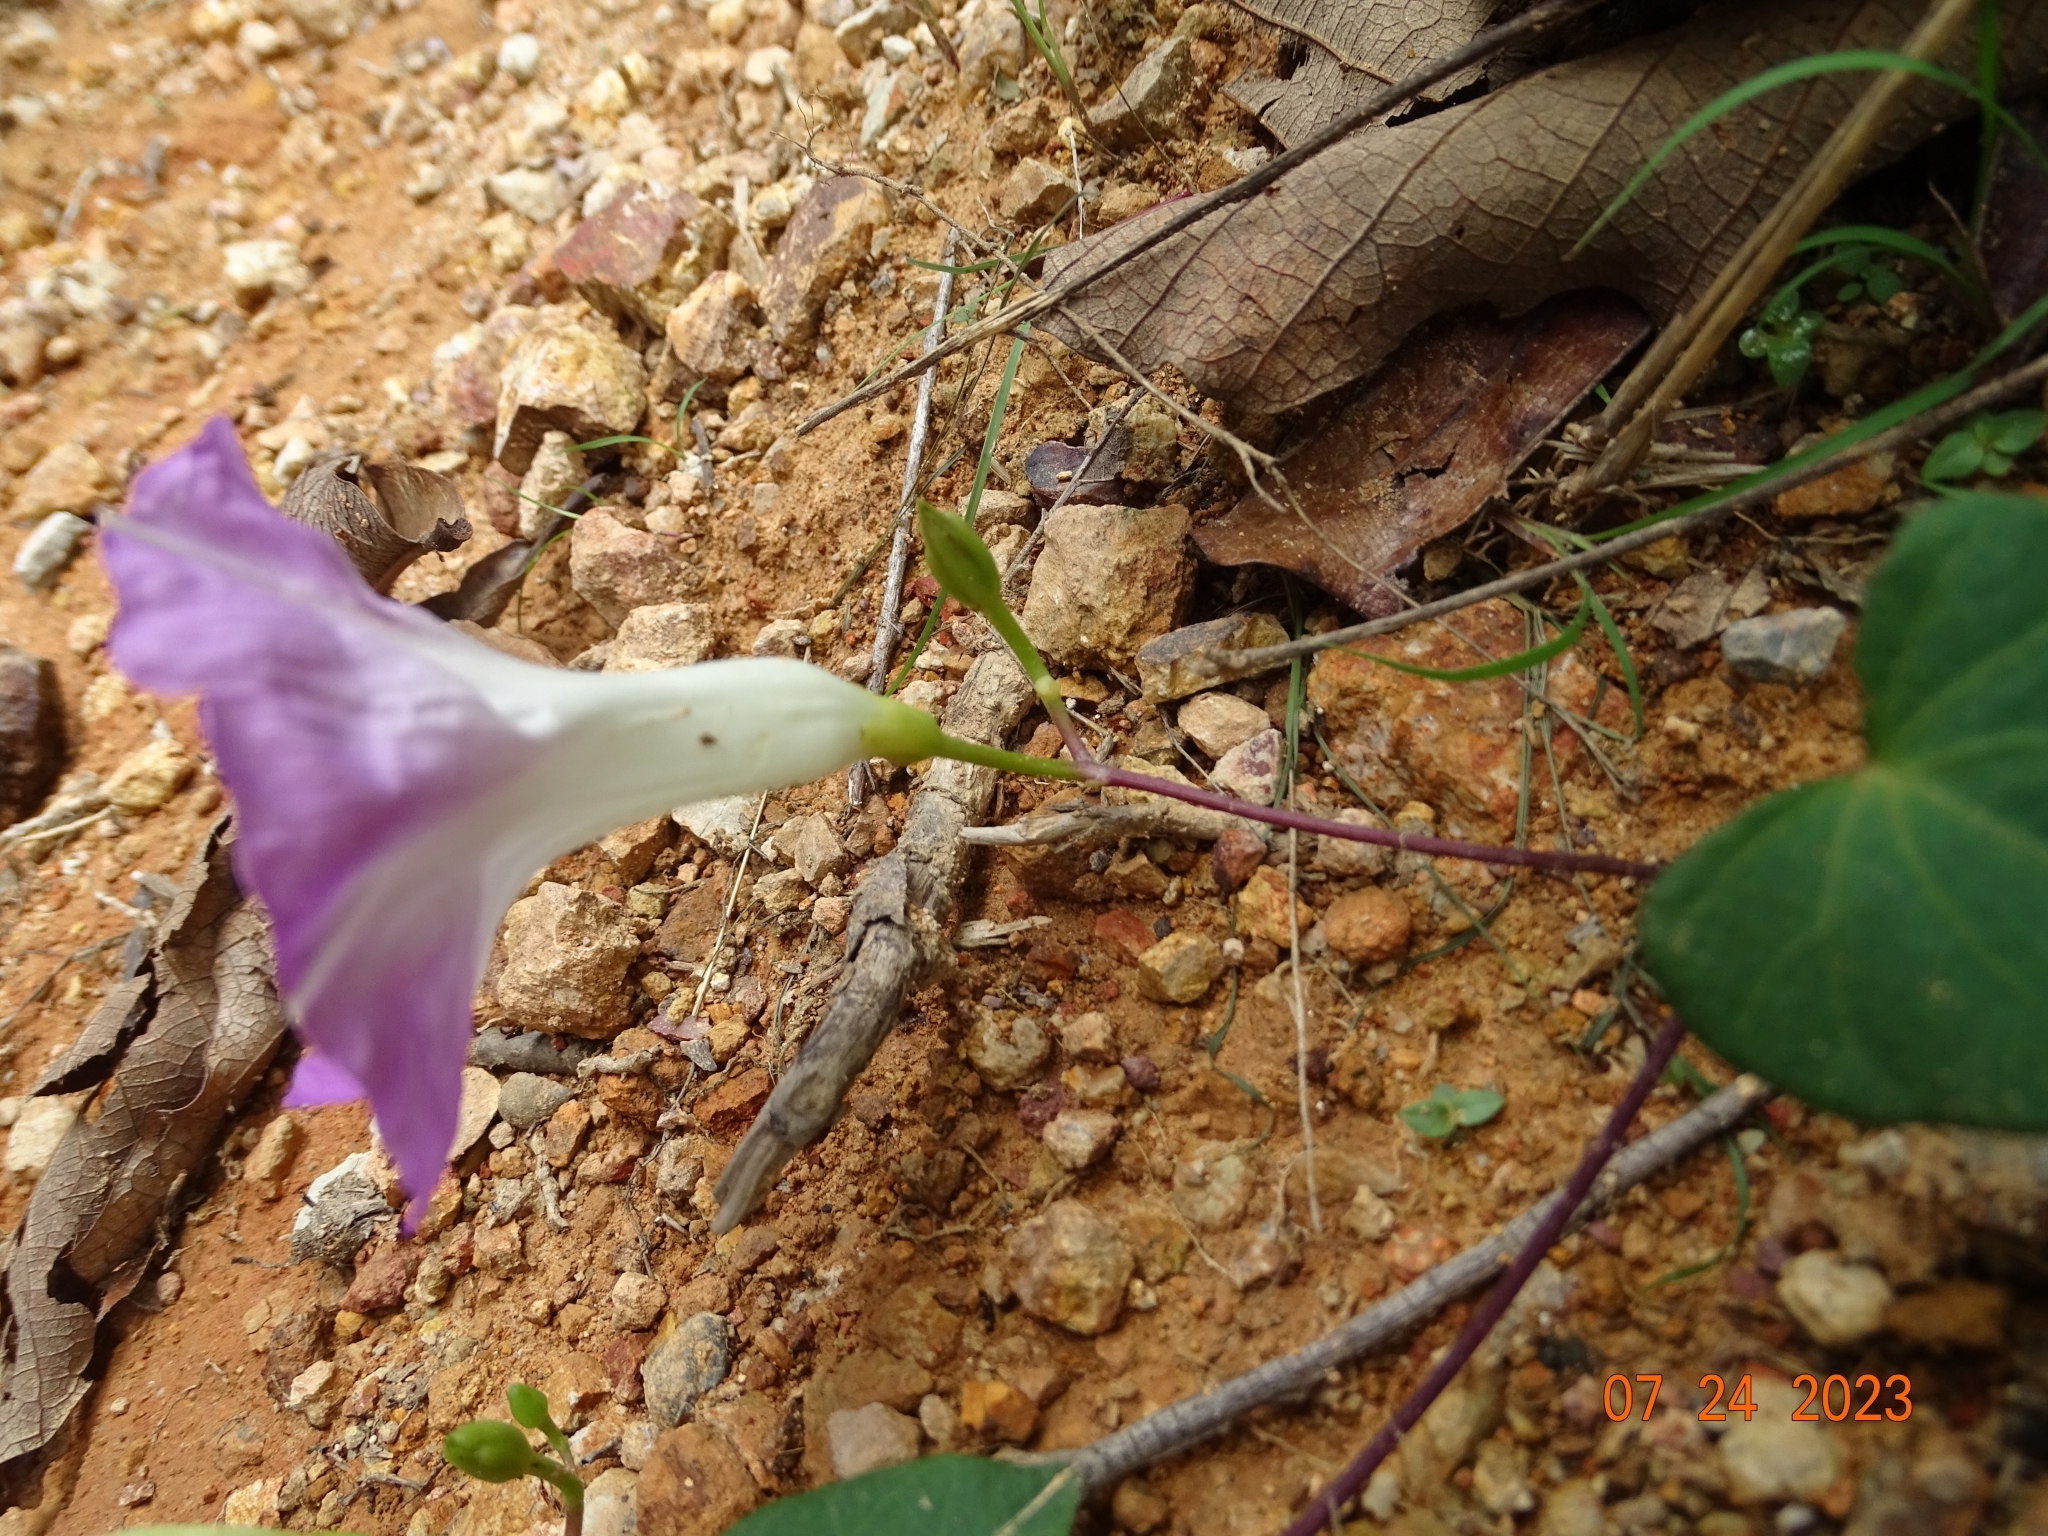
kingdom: Plantae
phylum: Tracheophyta
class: Magnoliopsida
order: Solanales
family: Convolvulaceae
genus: Ipomoea
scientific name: Ipomoea orizabensis
